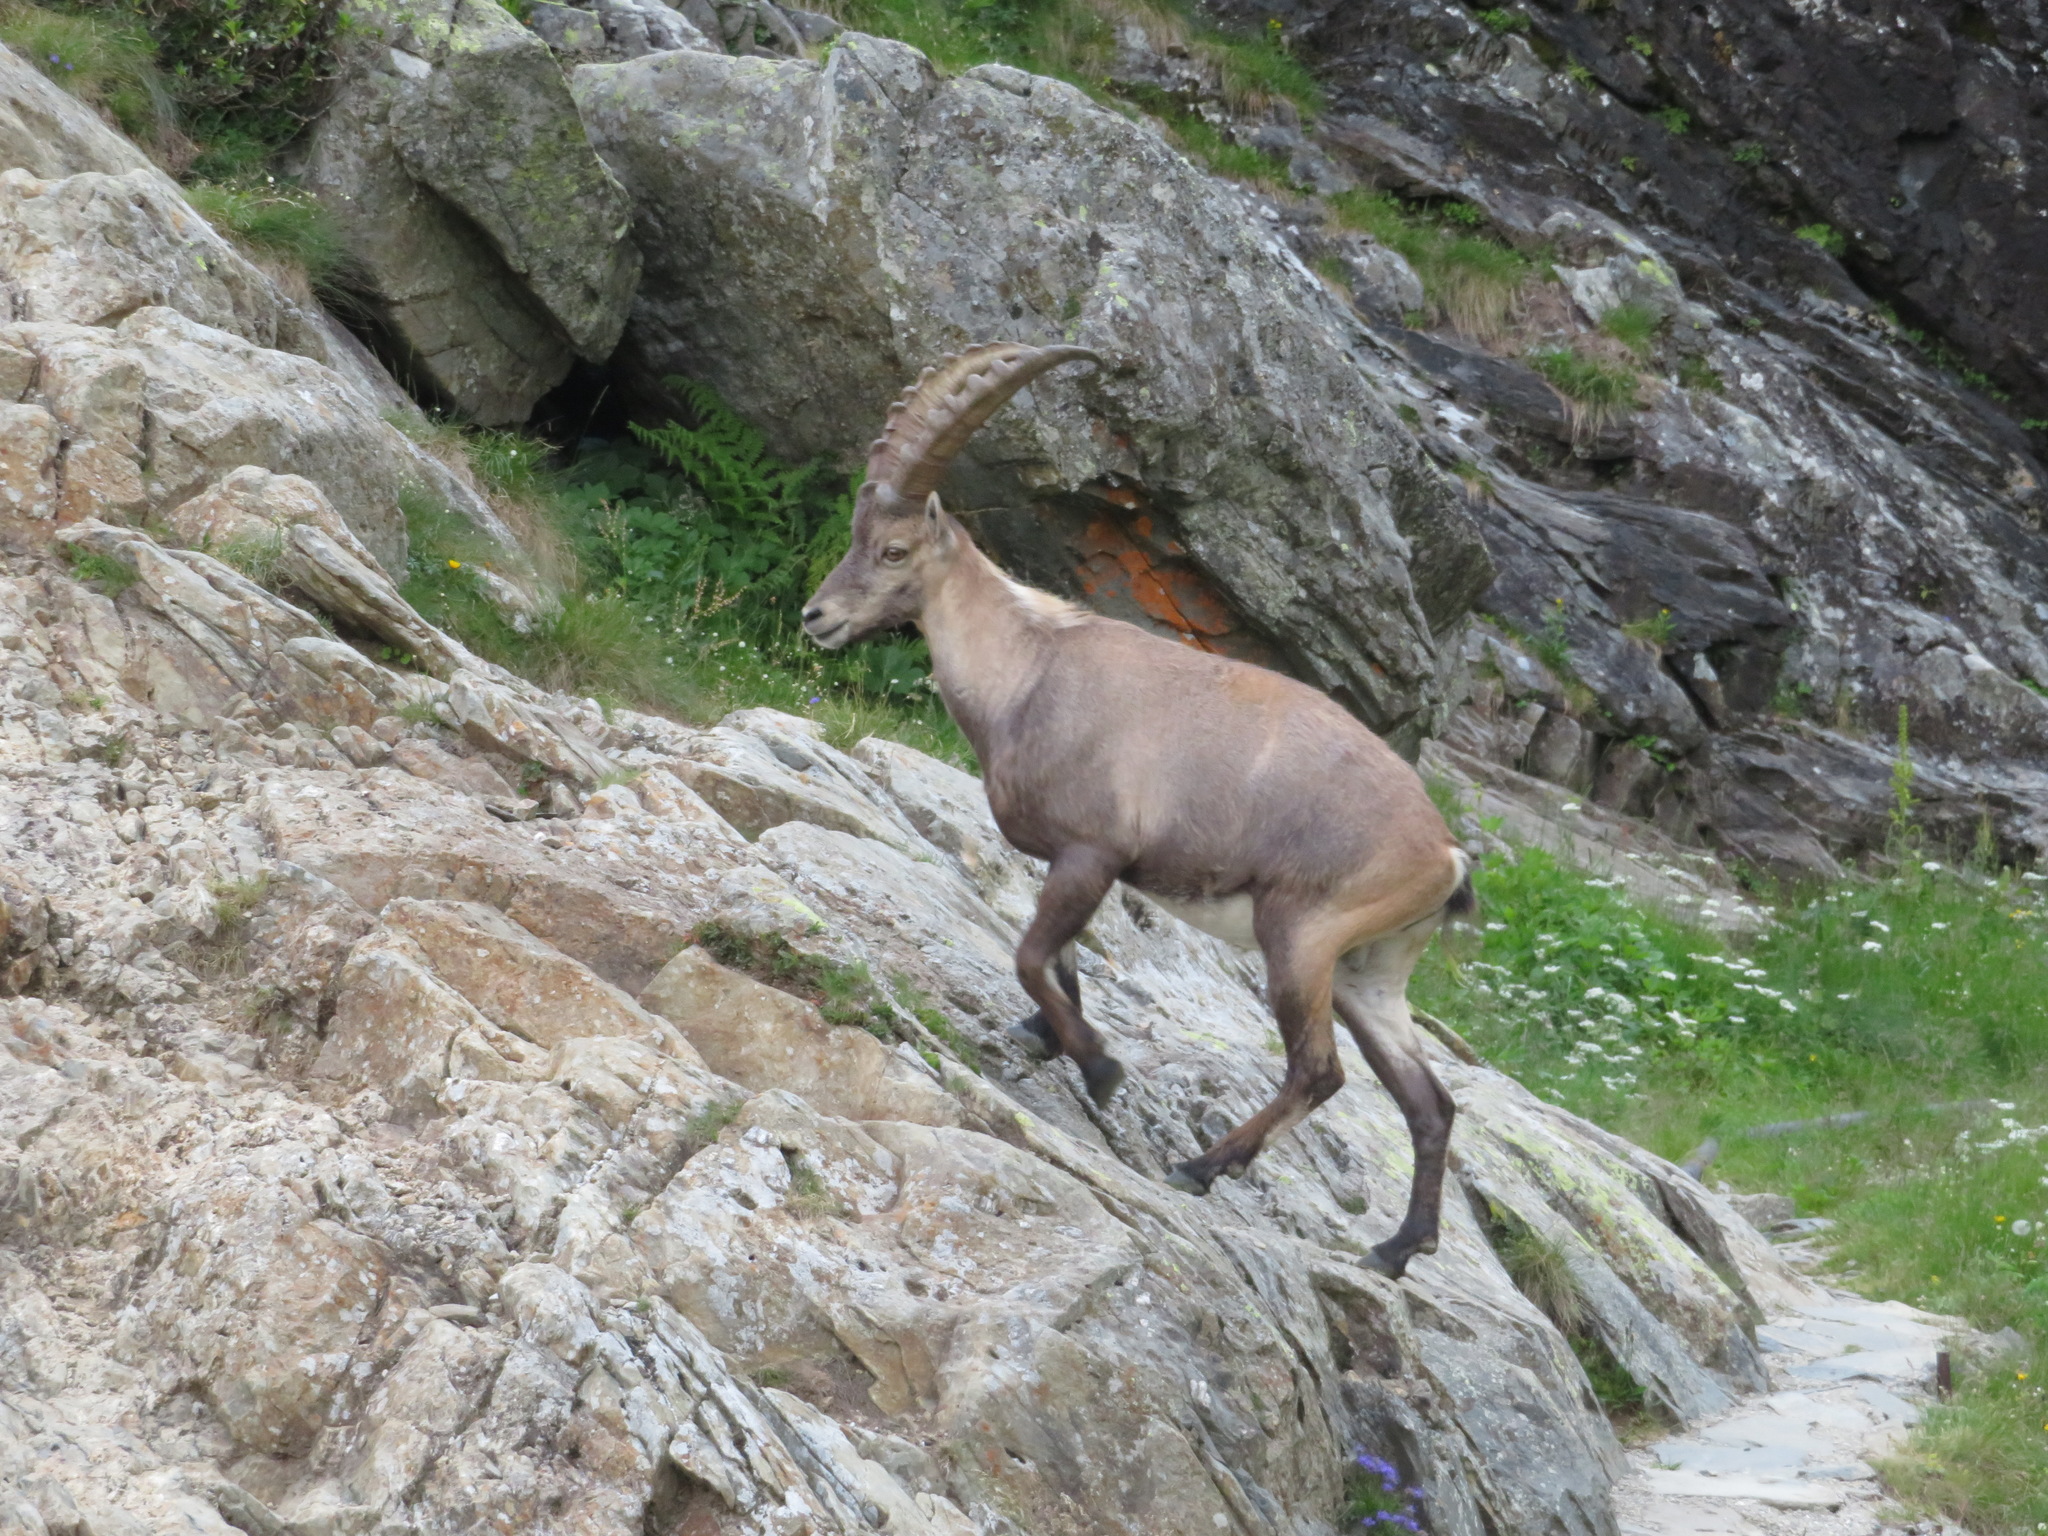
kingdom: Animalia
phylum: Chordata
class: Mammalia
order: Artiodactyla
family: Bovidae
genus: Capra
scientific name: Capra ibex
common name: Alpine ibex
